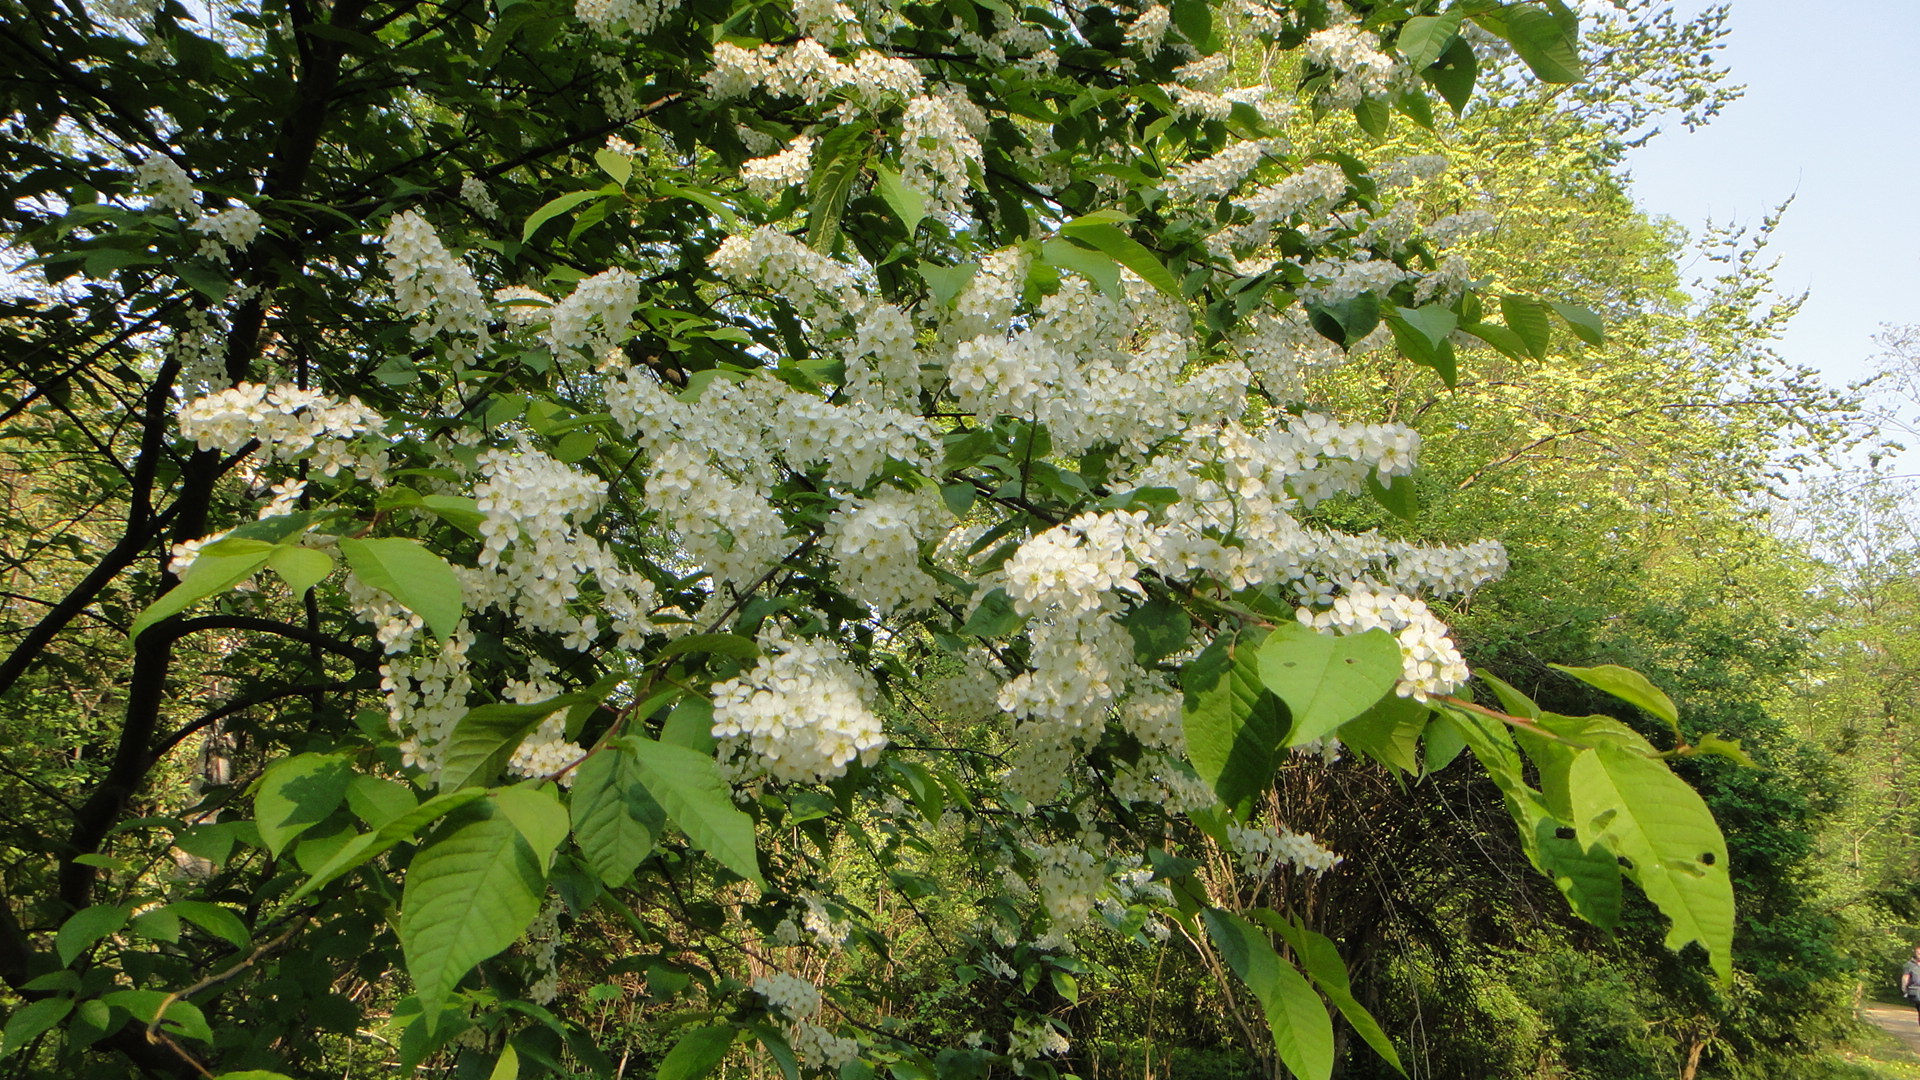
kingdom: Plantae
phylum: Tracheophyta
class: Magnoliopsida
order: Rosales
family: Rosaceae
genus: Prunus
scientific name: Prunus padus
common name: Bird cherry
